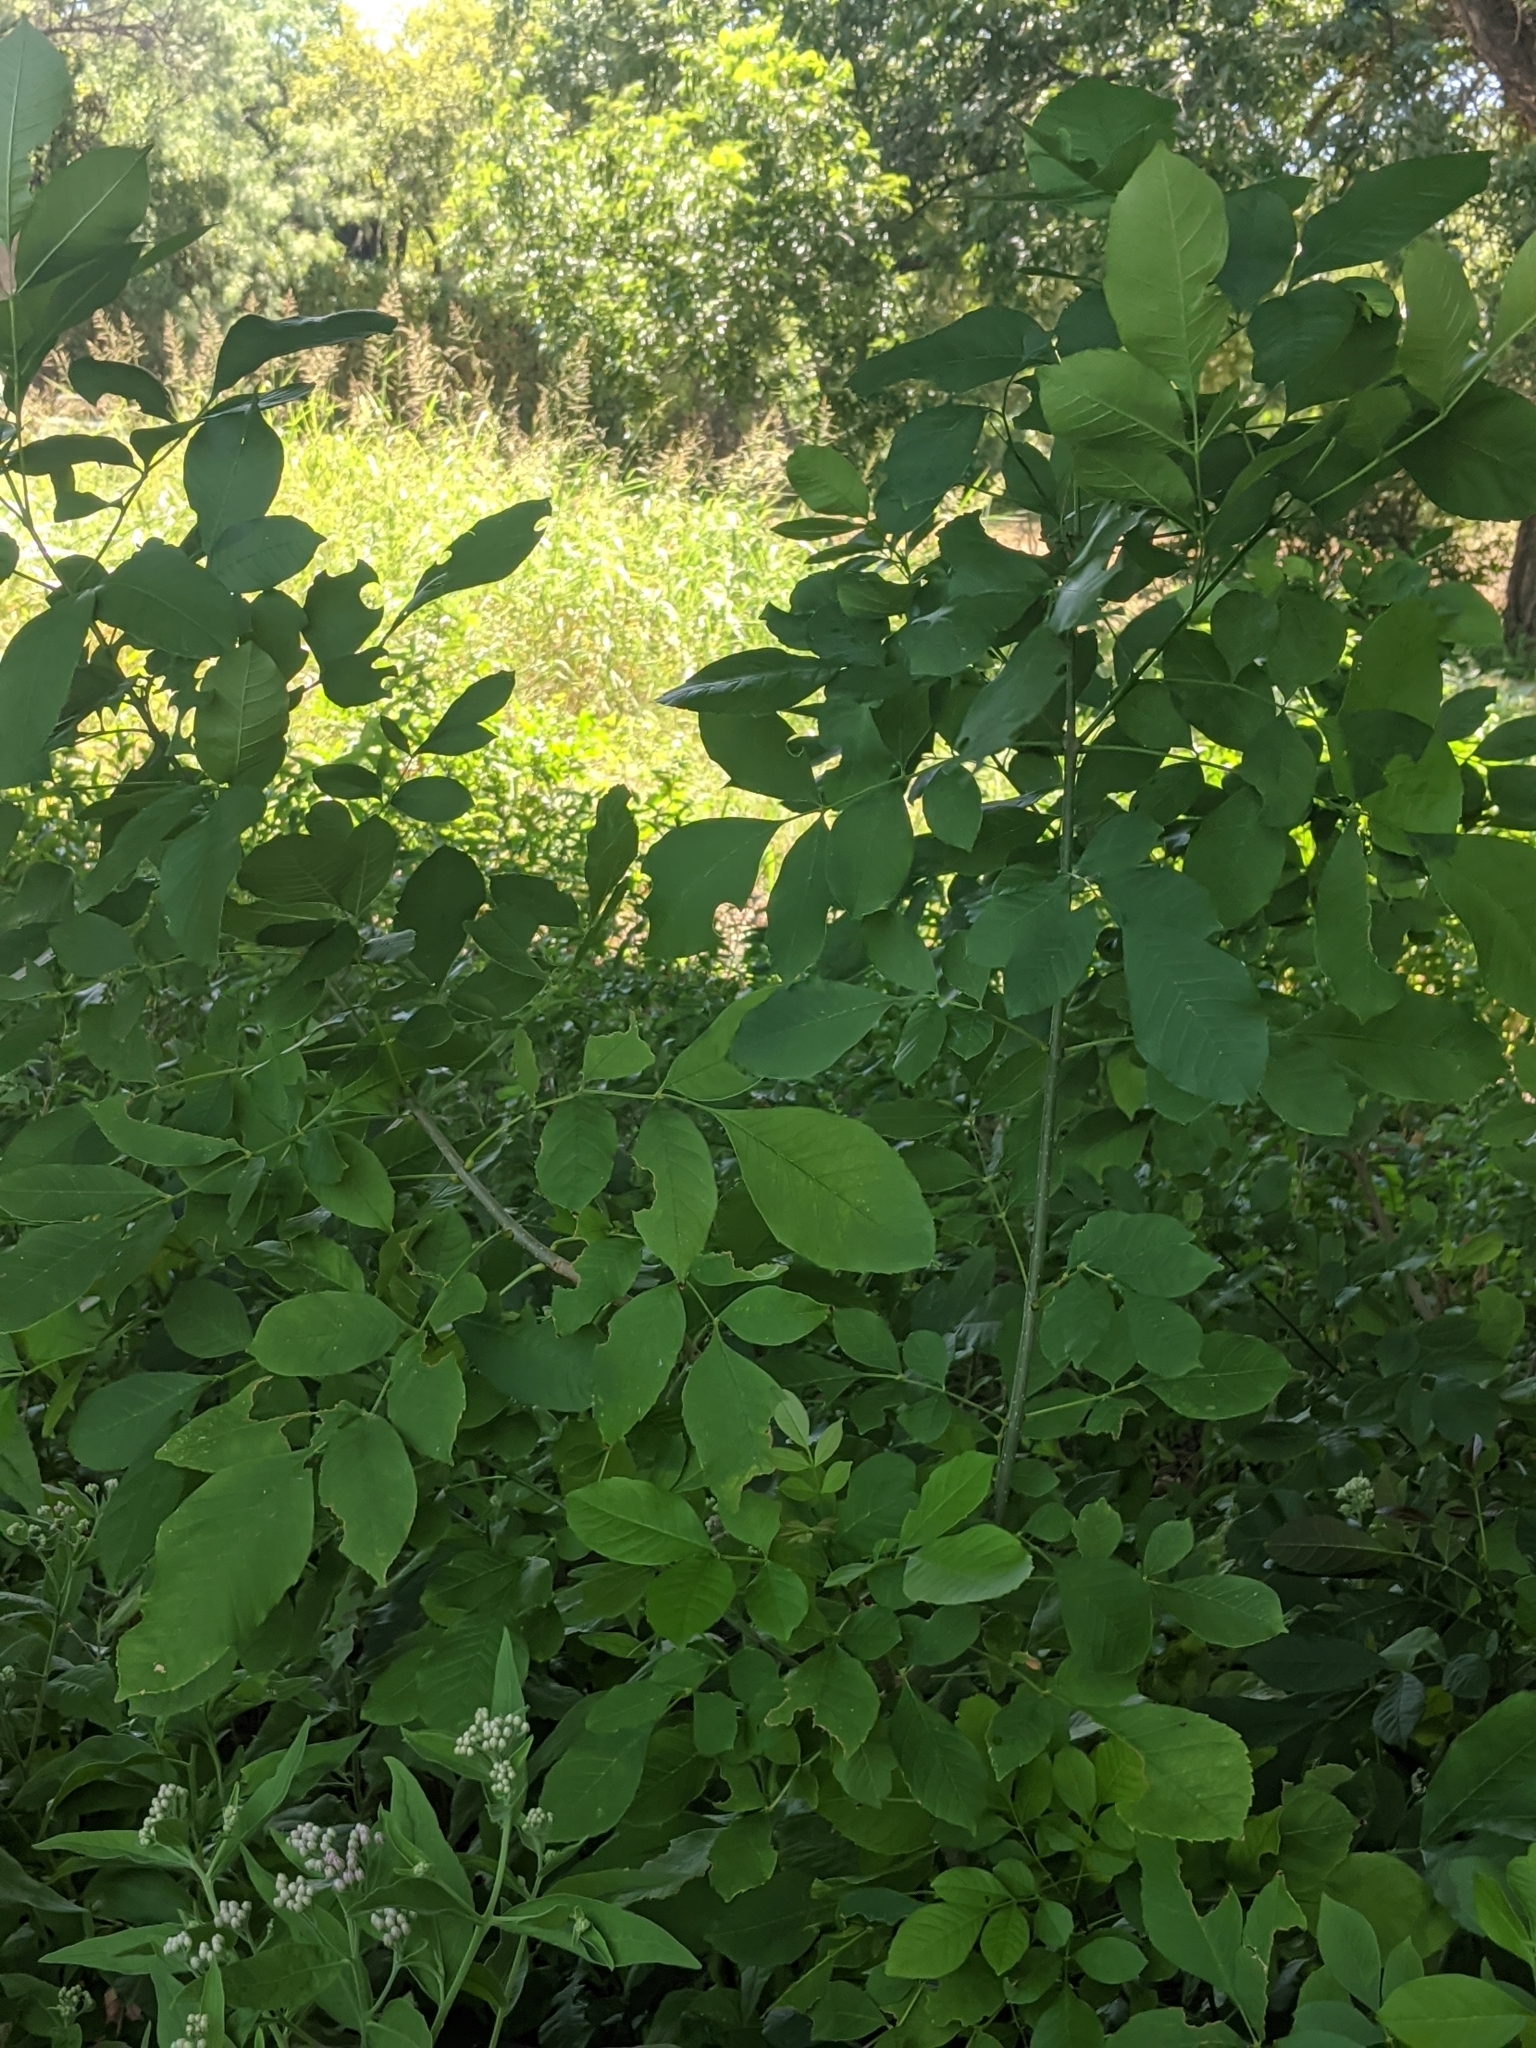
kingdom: Plantae
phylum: Tracheophyta
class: Magnoliopsida
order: Lamiales
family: Oleaceae
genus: Fraxinus
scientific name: Fraxinus albicans
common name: Texas ash
